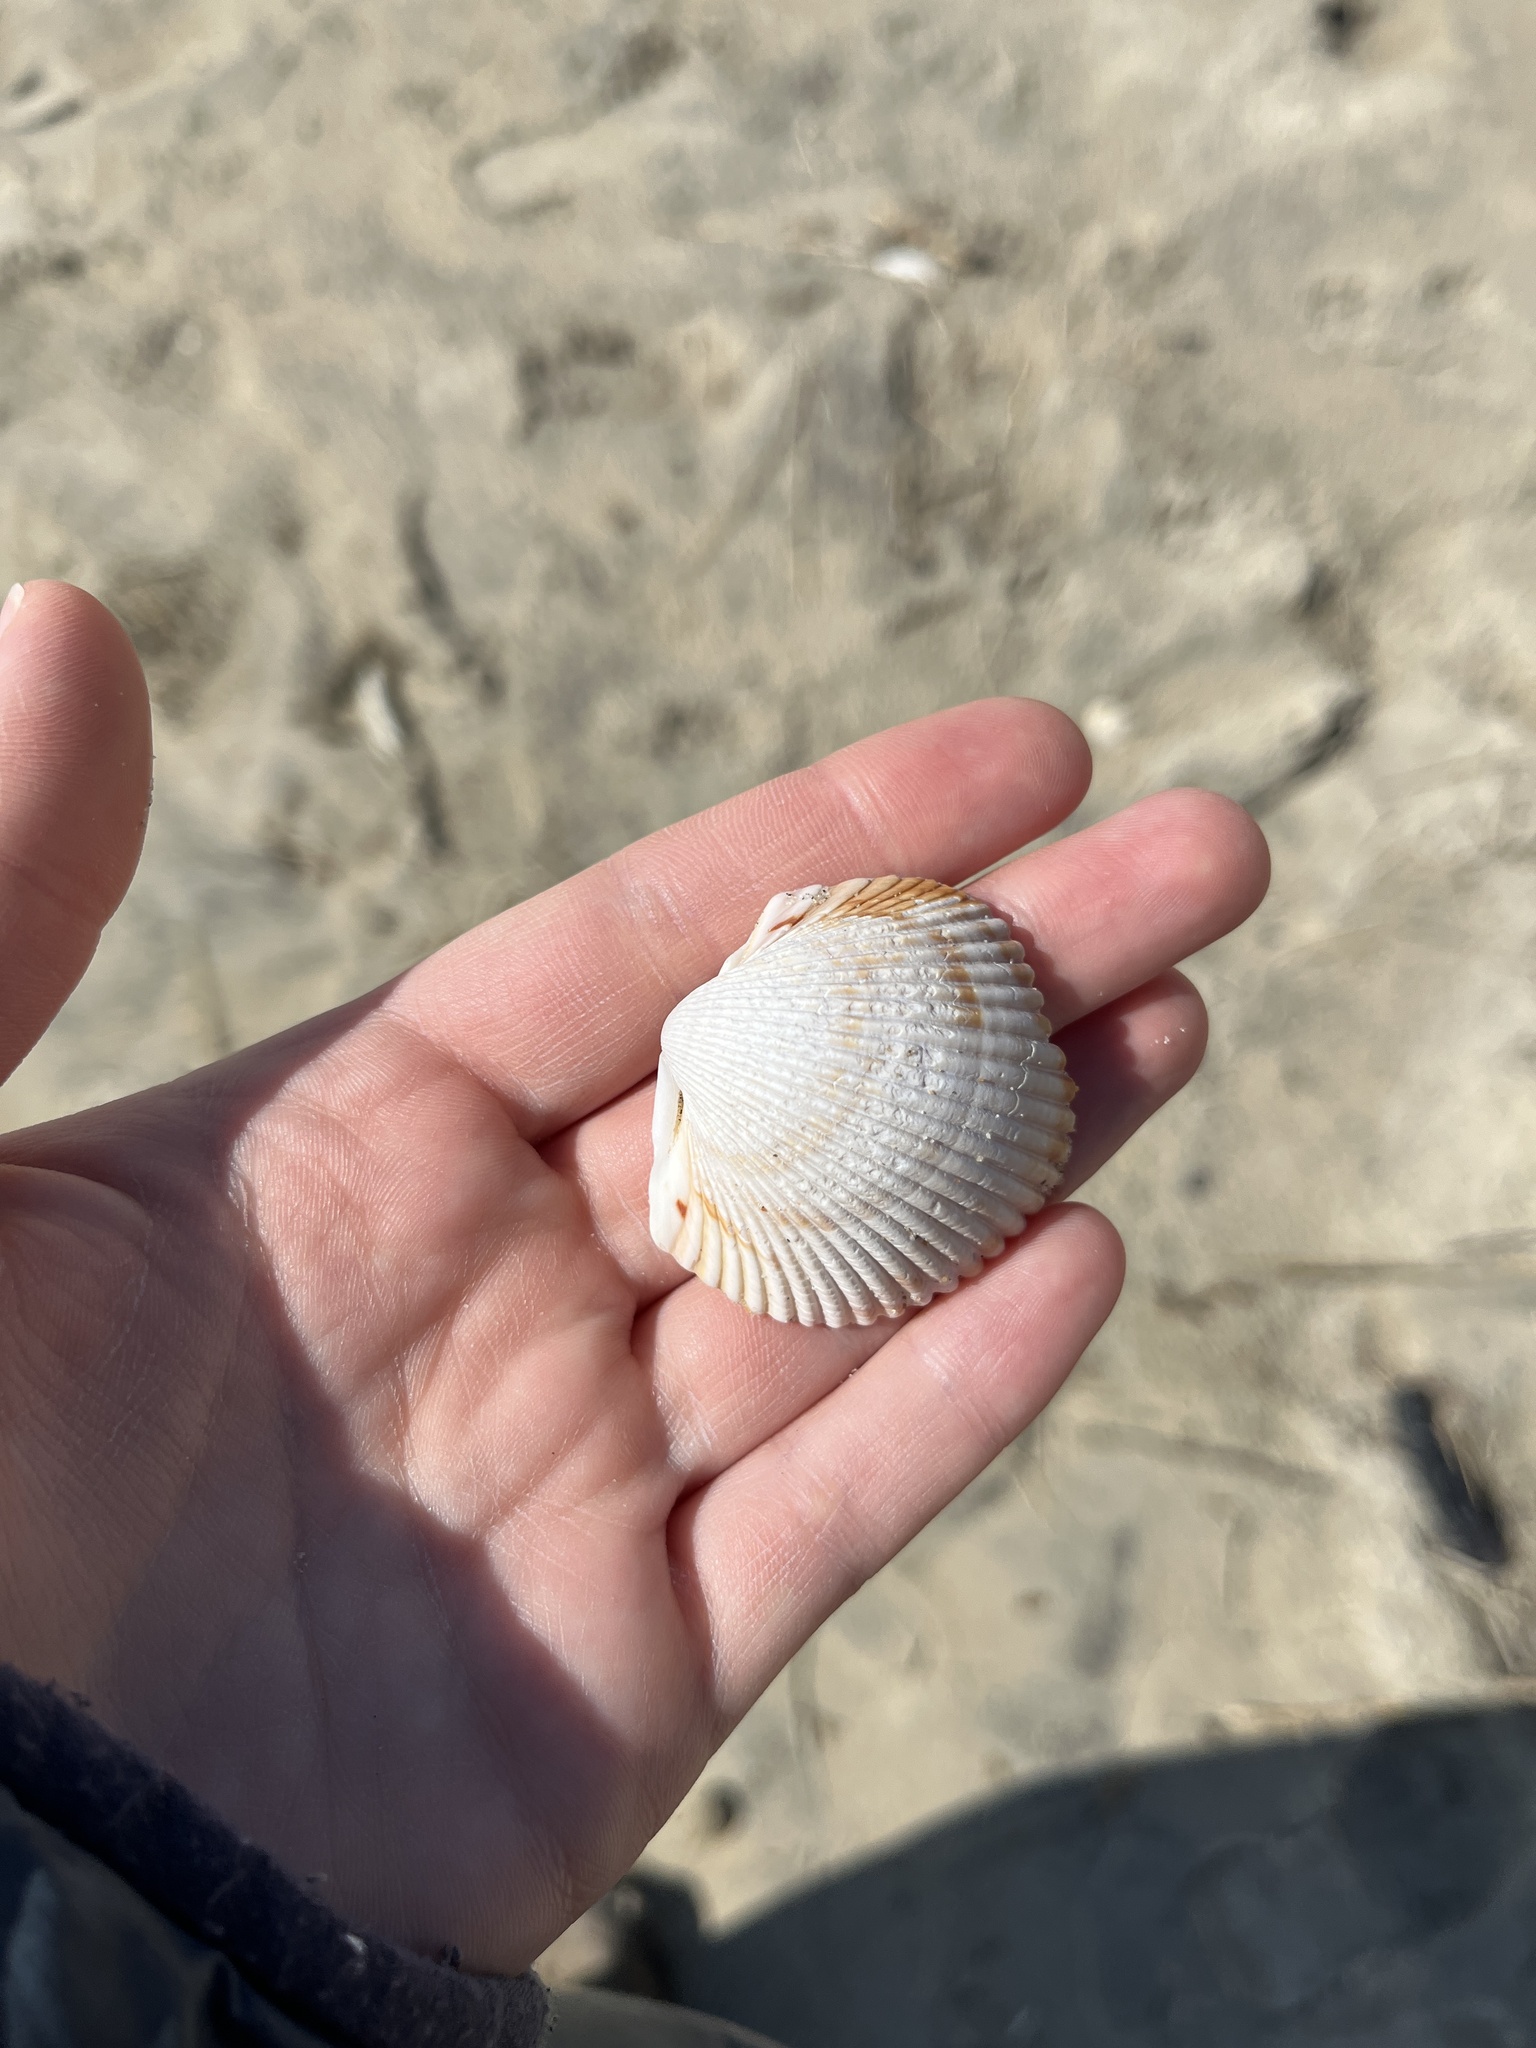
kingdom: Animalia
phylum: Mollusca
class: Bivalvia
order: Cardiida
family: Cardiidae
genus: Dinocardium
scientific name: Dinocardium robustum
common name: Atlantic giant cockle
